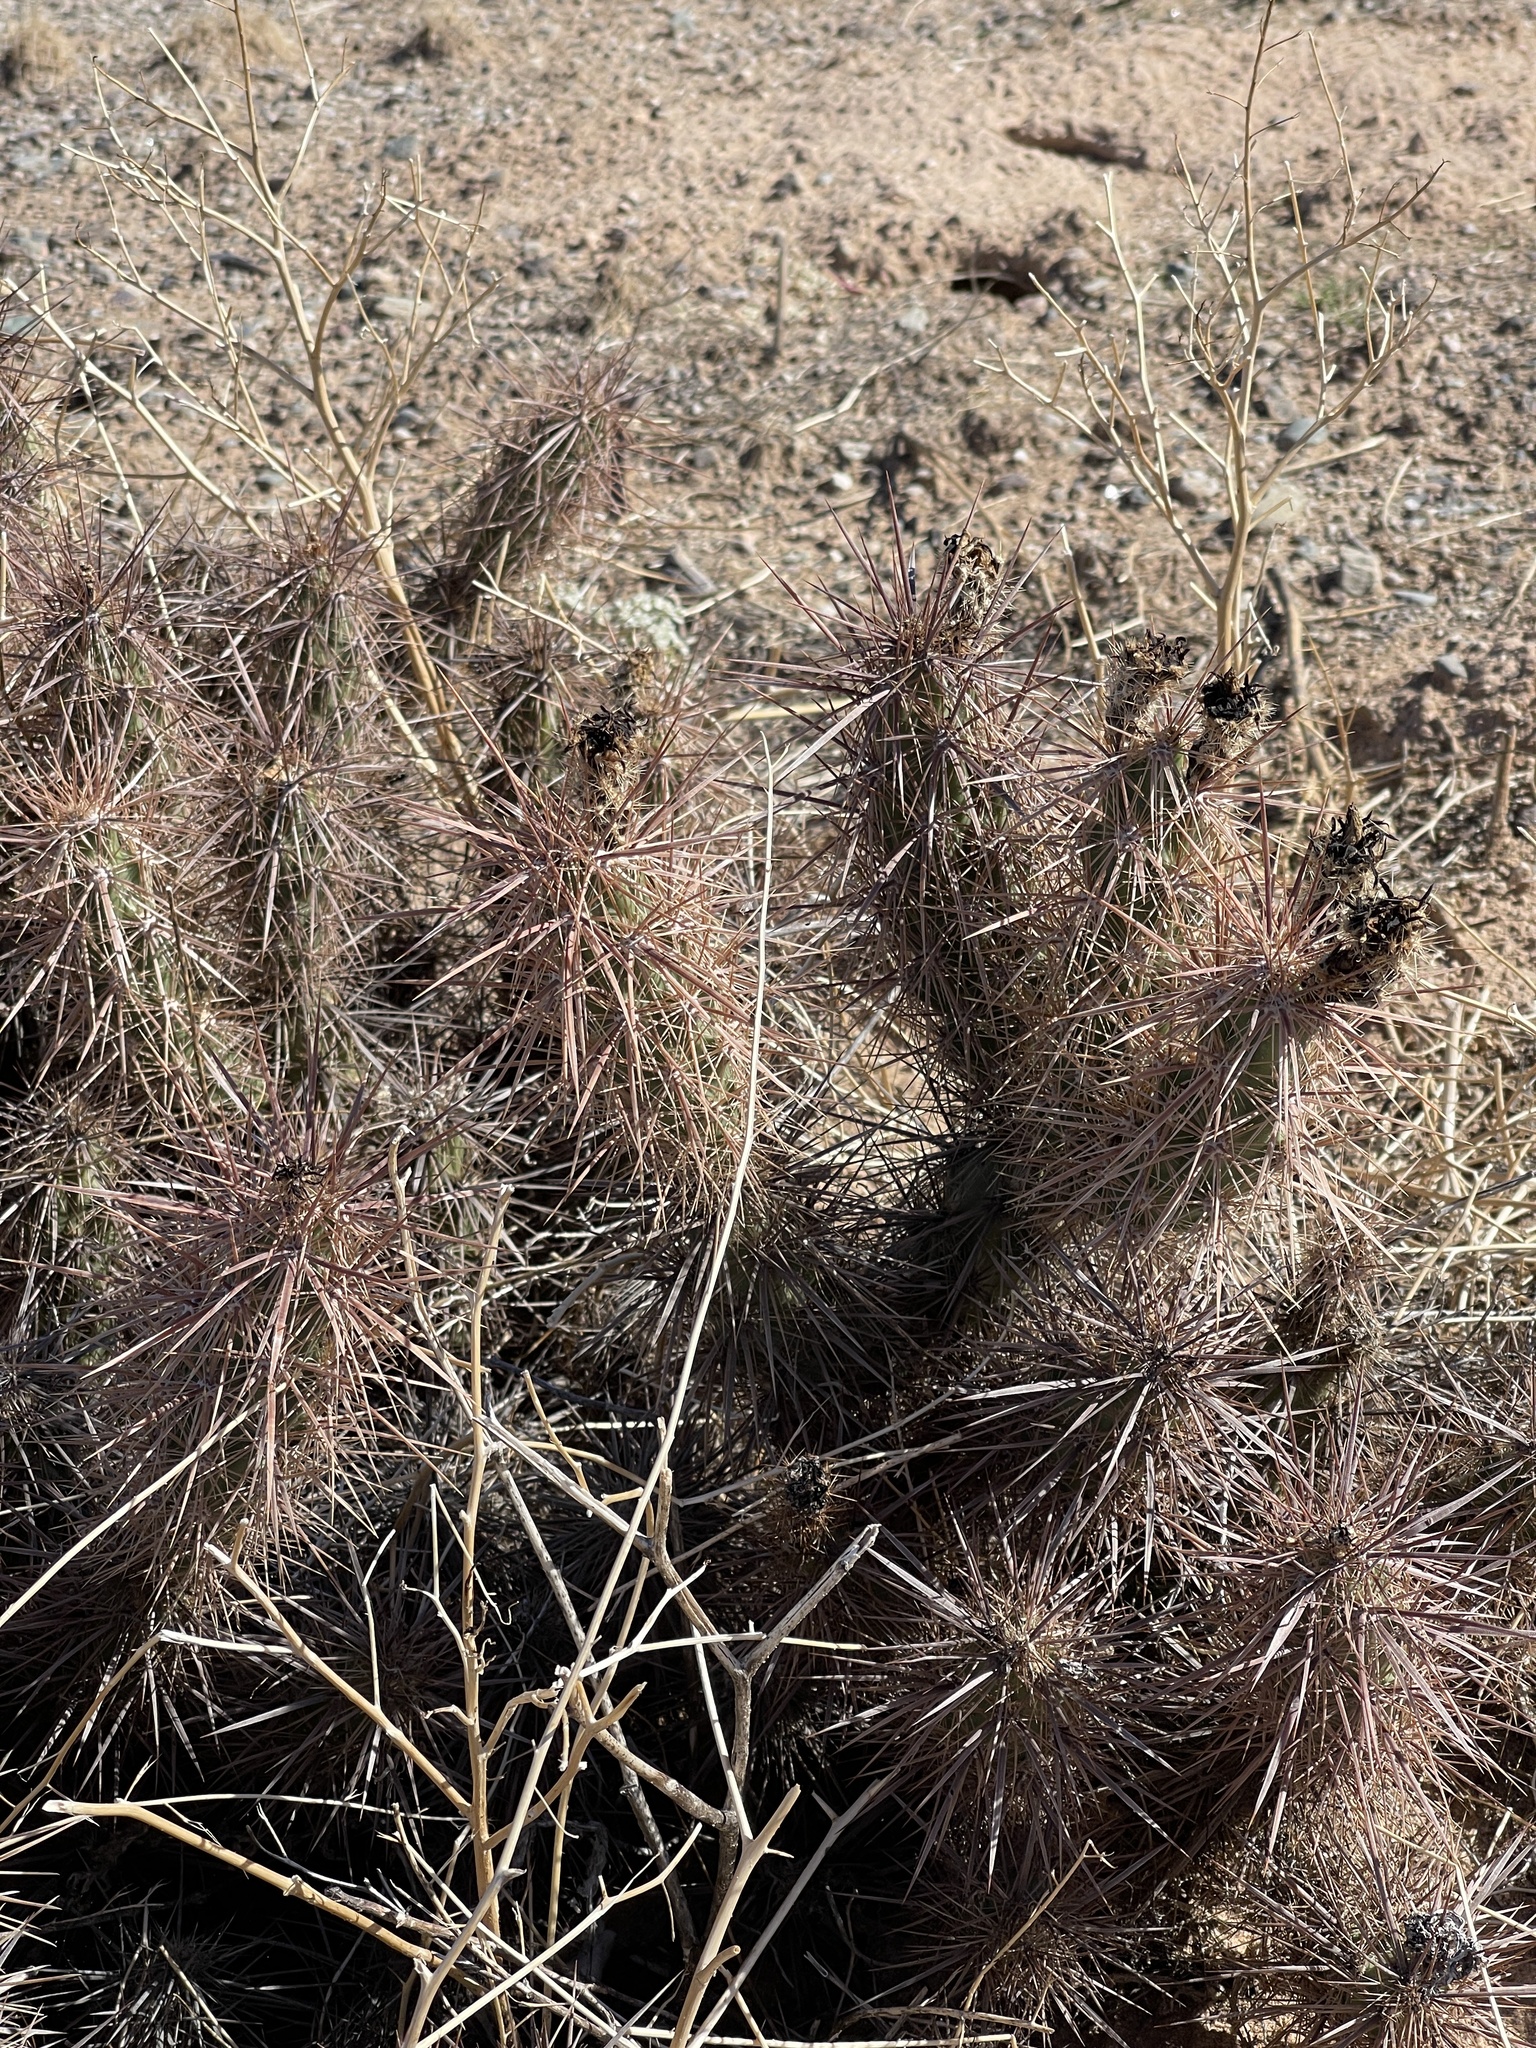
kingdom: Plantae
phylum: Tracheophyta
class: Magnoliopsida
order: Caryophyllales
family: Cactaceae
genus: Grusonia
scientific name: Grusonia kunzei
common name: Wright's club cholla
